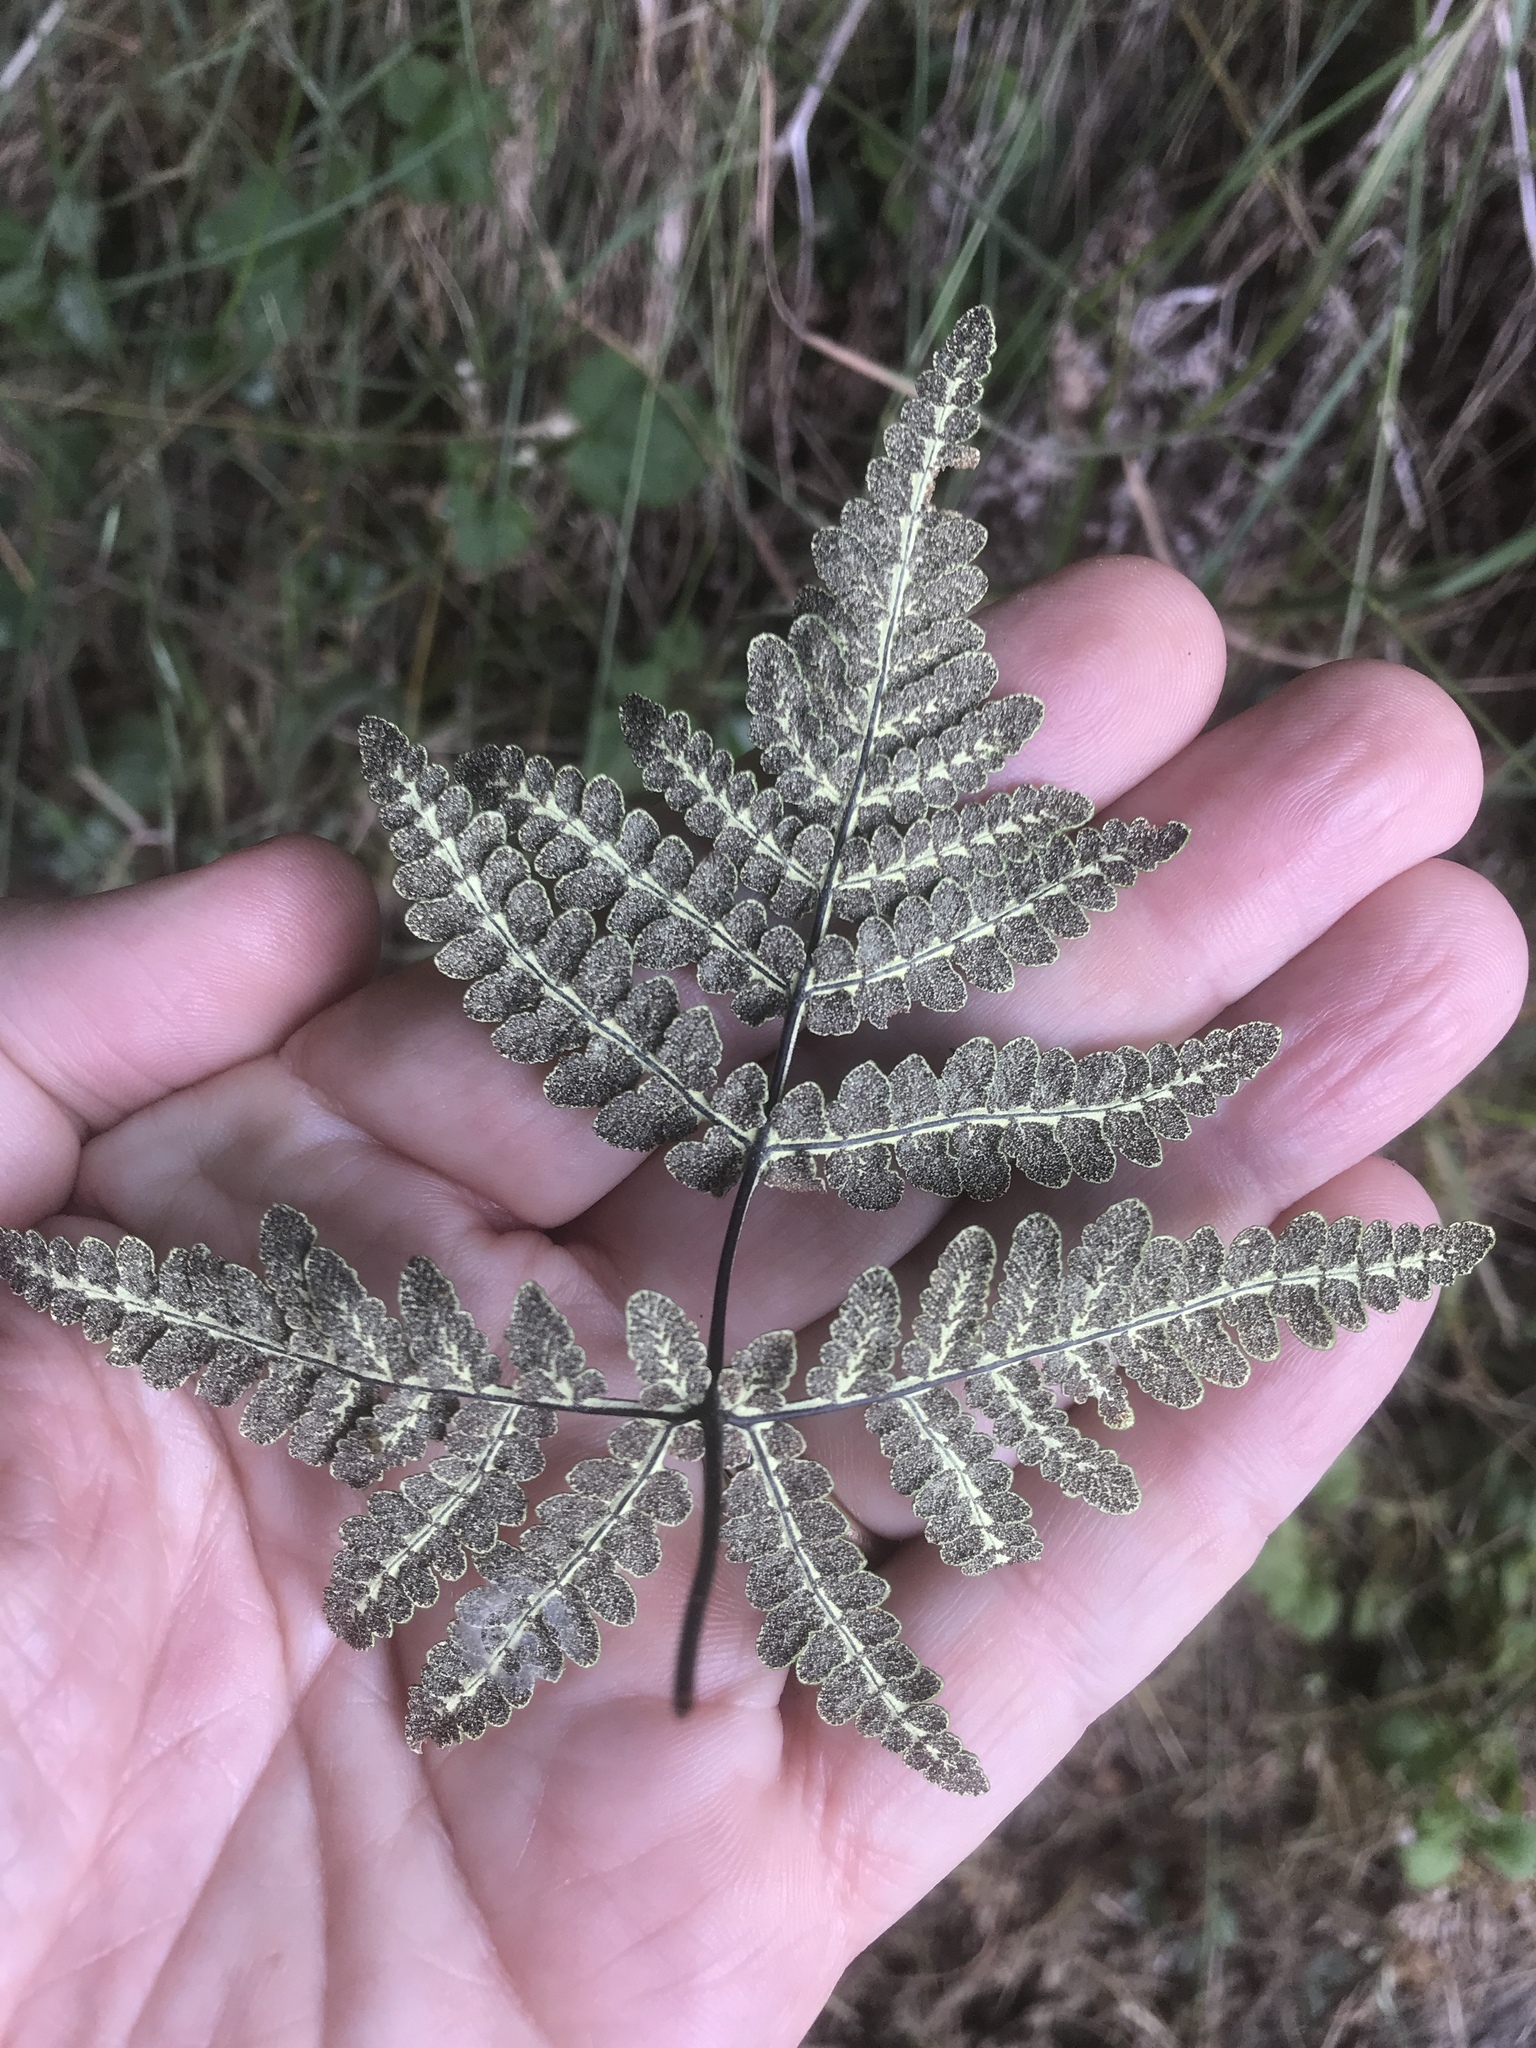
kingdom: Plantae
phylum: Tracheophyta
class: Polypodiopsida
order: Polypodiales
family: Pteridaceae
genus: Pentagramma
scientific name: Pentagramma triangularis
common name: Gold fern
